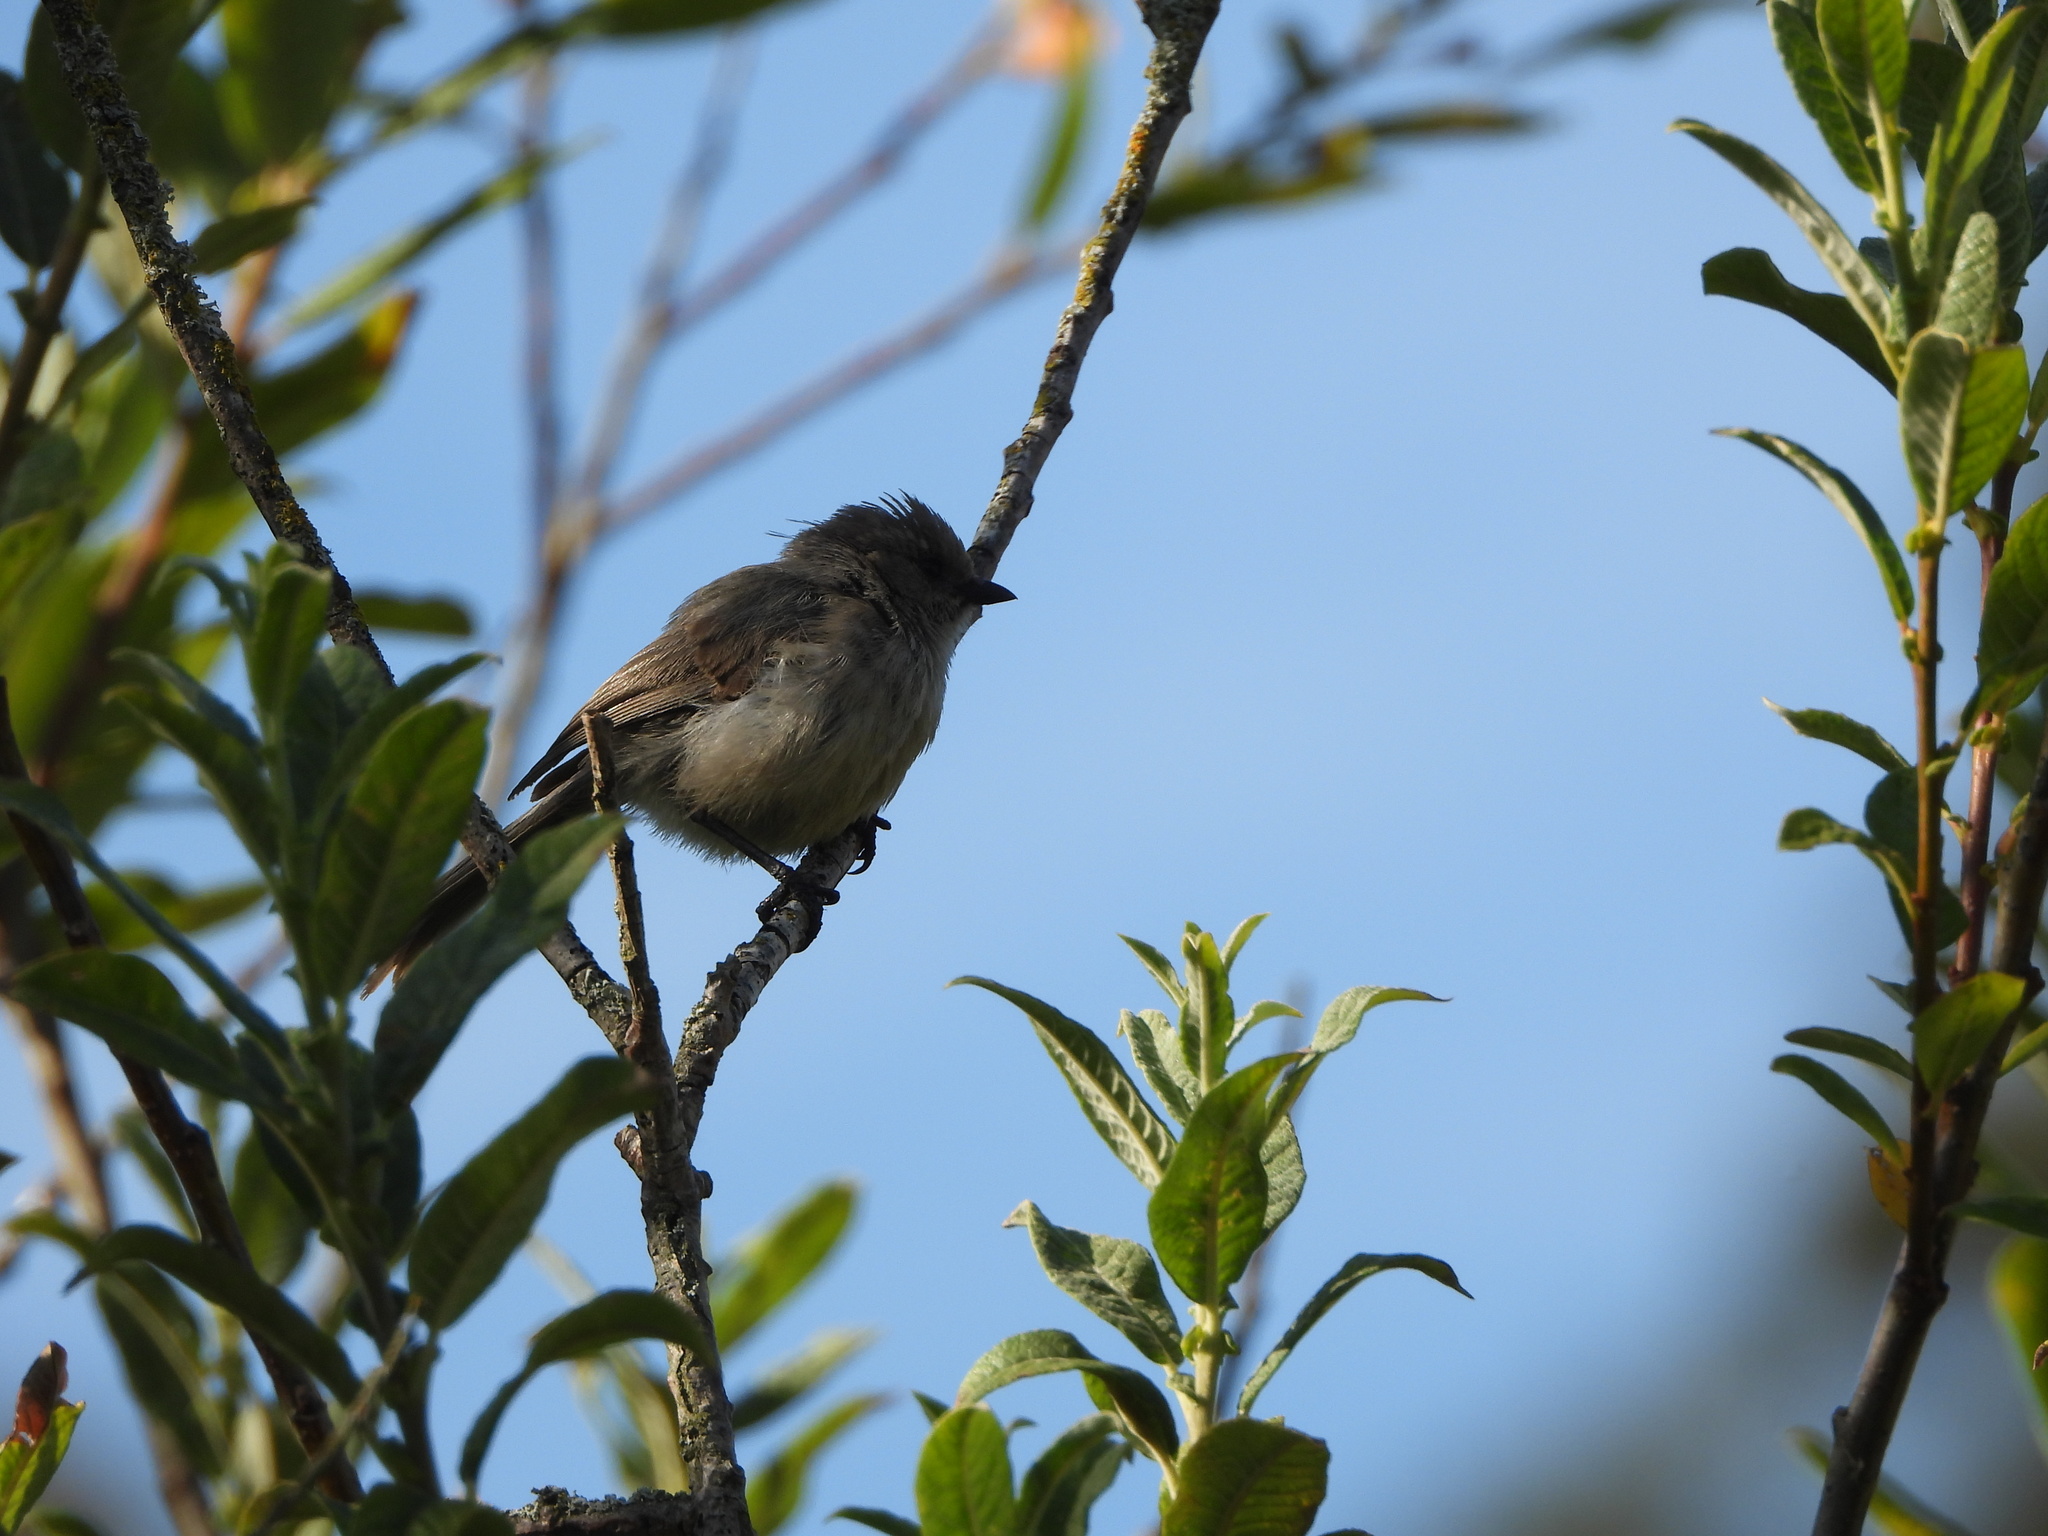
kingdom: Animalia
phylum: Chordata
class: Aves
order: Passeriformes
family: Aegithalidae
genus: Psaltriparus
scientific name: Psaltriparus minimus
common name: American bushtit
